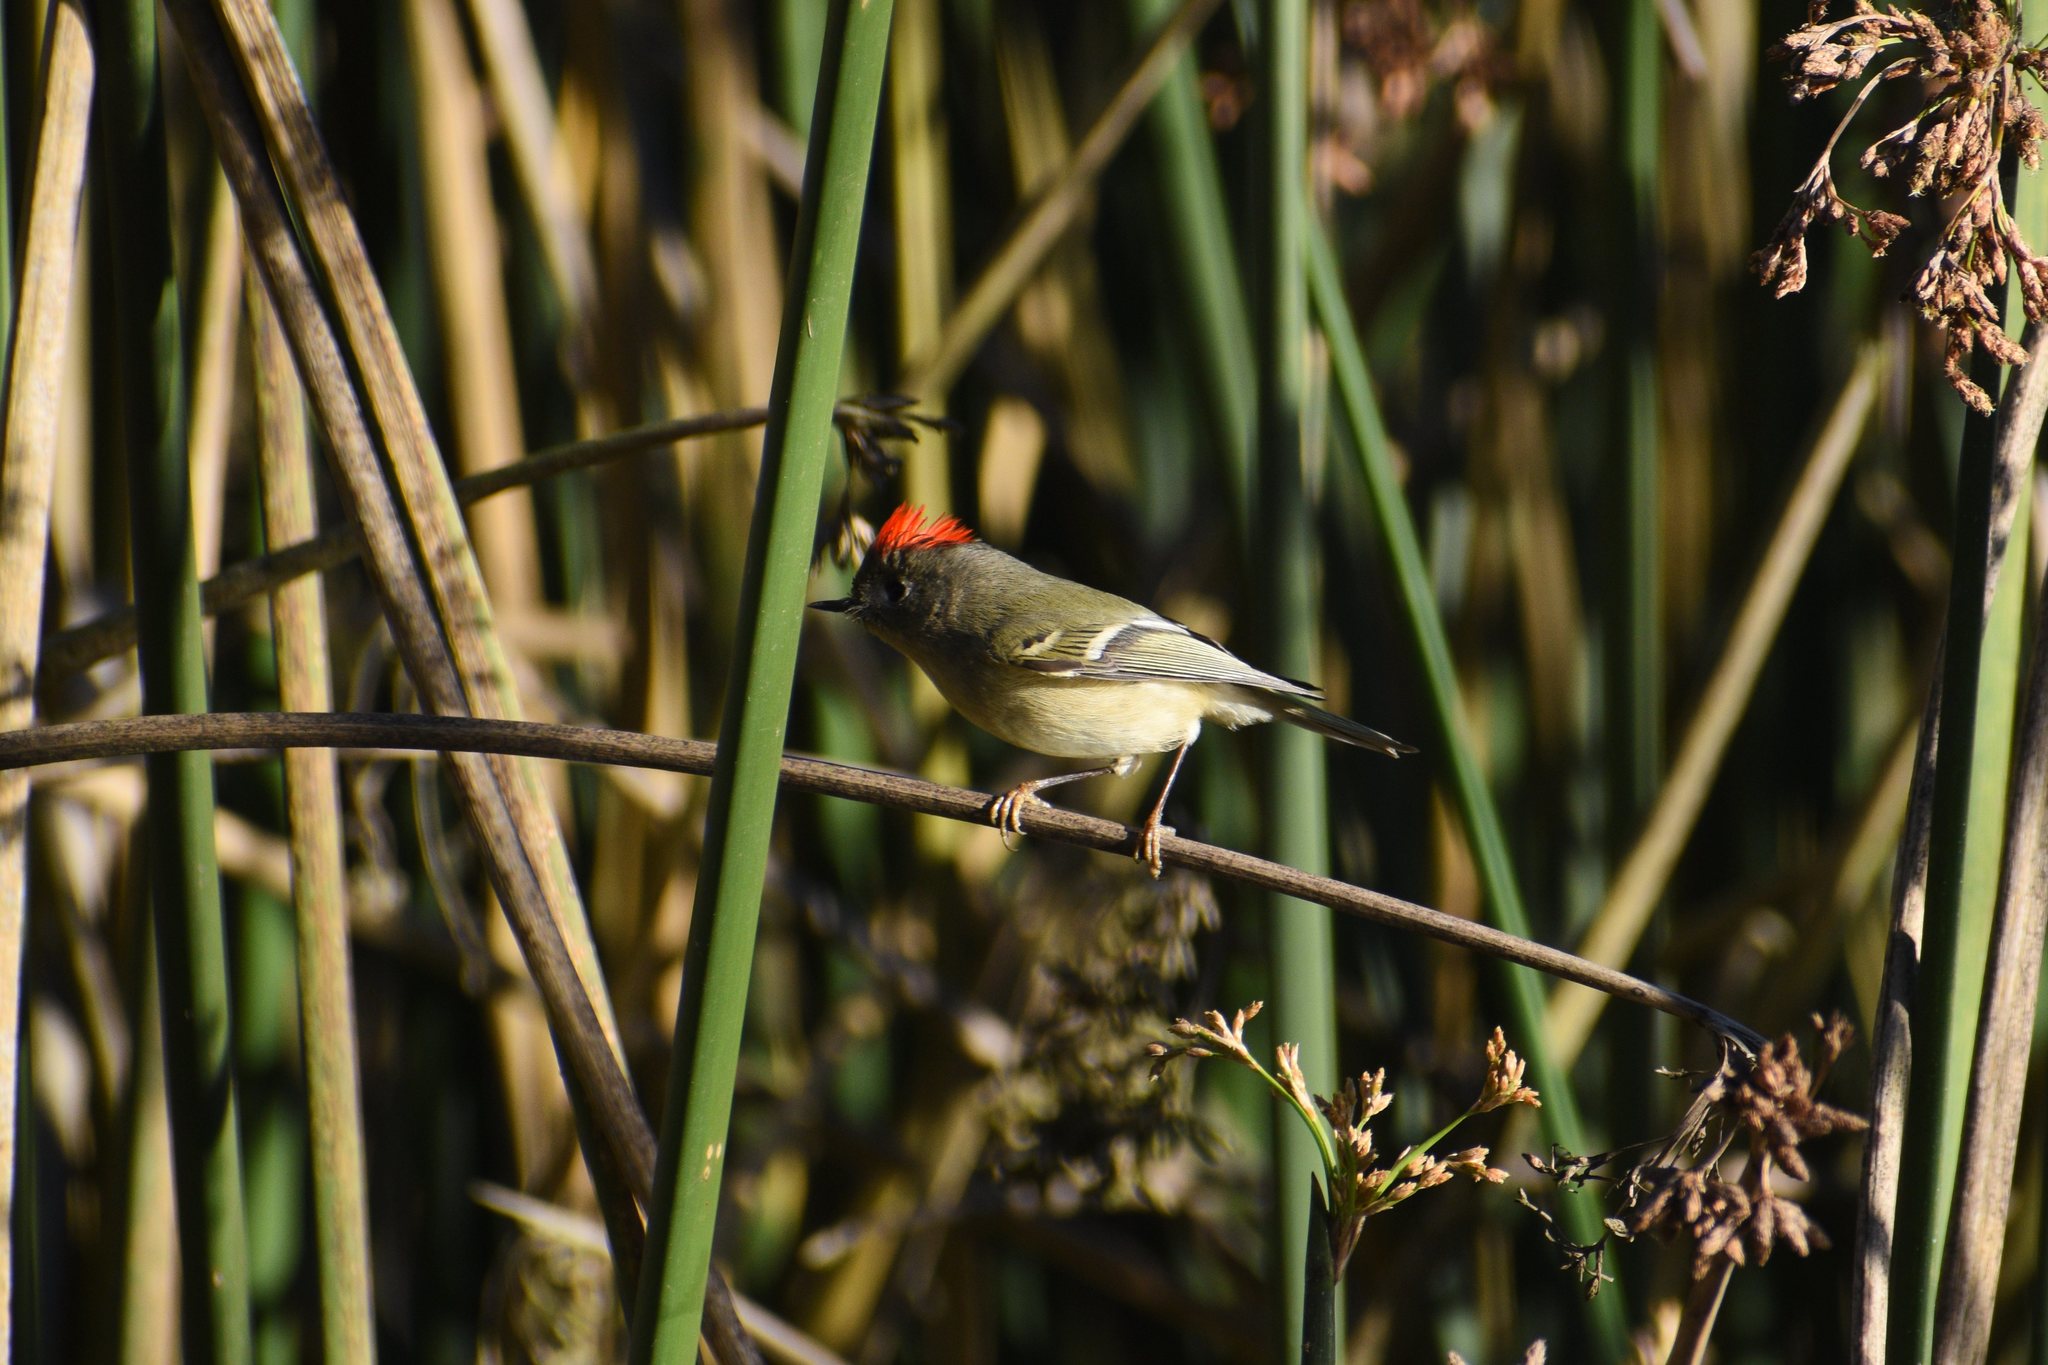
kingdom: Animalia
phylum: Chordata
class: Aves
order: Passeriformes
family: Regulidae
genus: Regulus
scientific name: Regulus calendula
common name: Ruby-crowned kinglet
